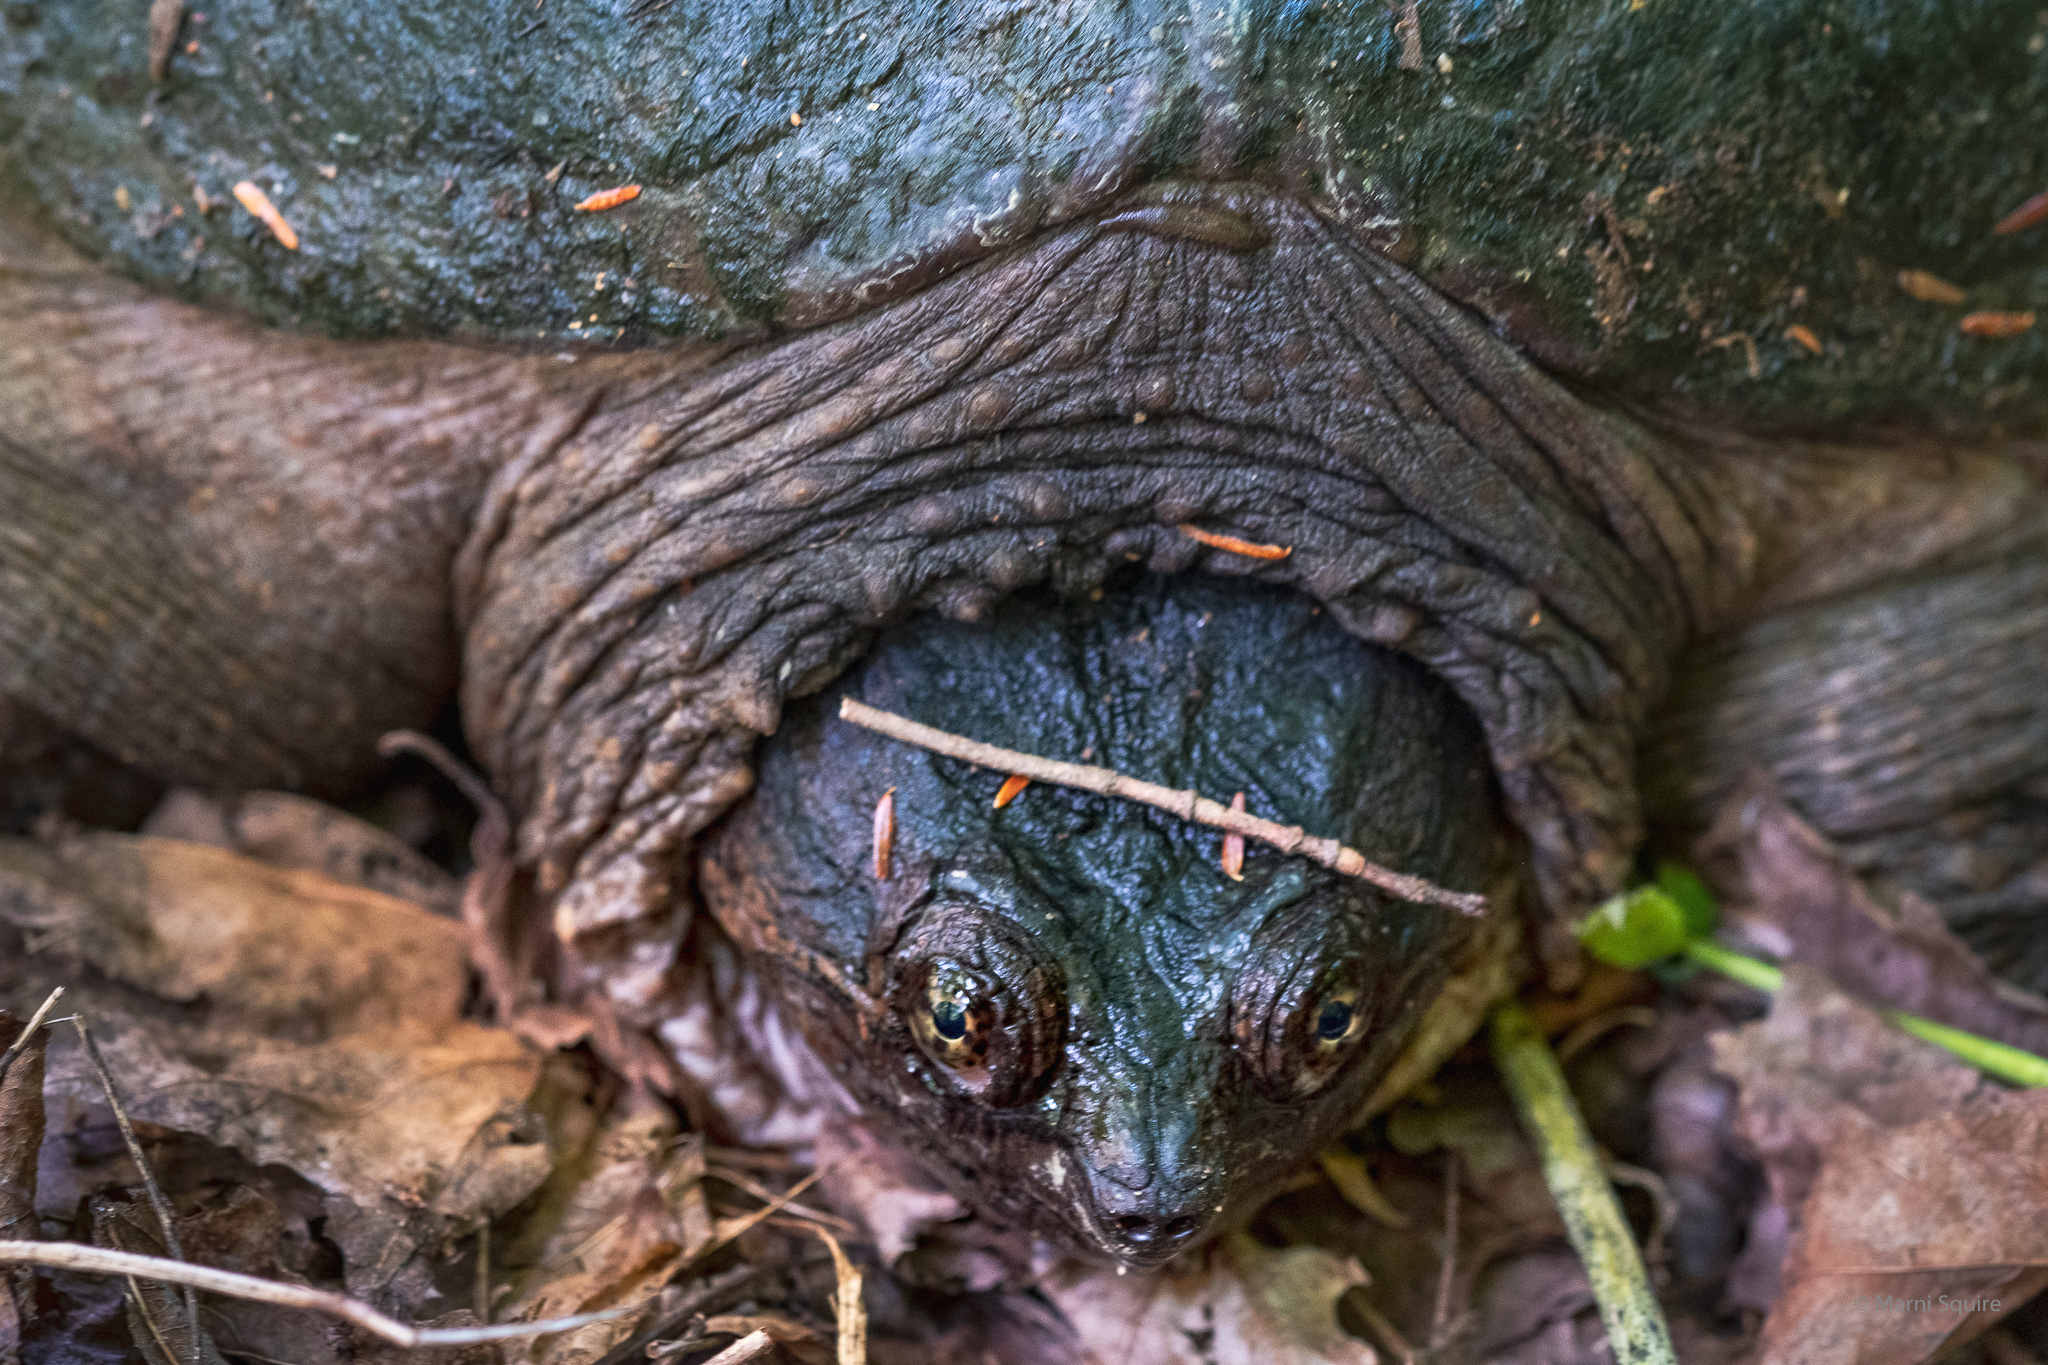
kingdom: Animalia
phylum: Chordata
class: Testudines
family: Chelydridae
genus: Chelydra
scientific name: Chelydra serpentina
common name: Common snapping turtle
